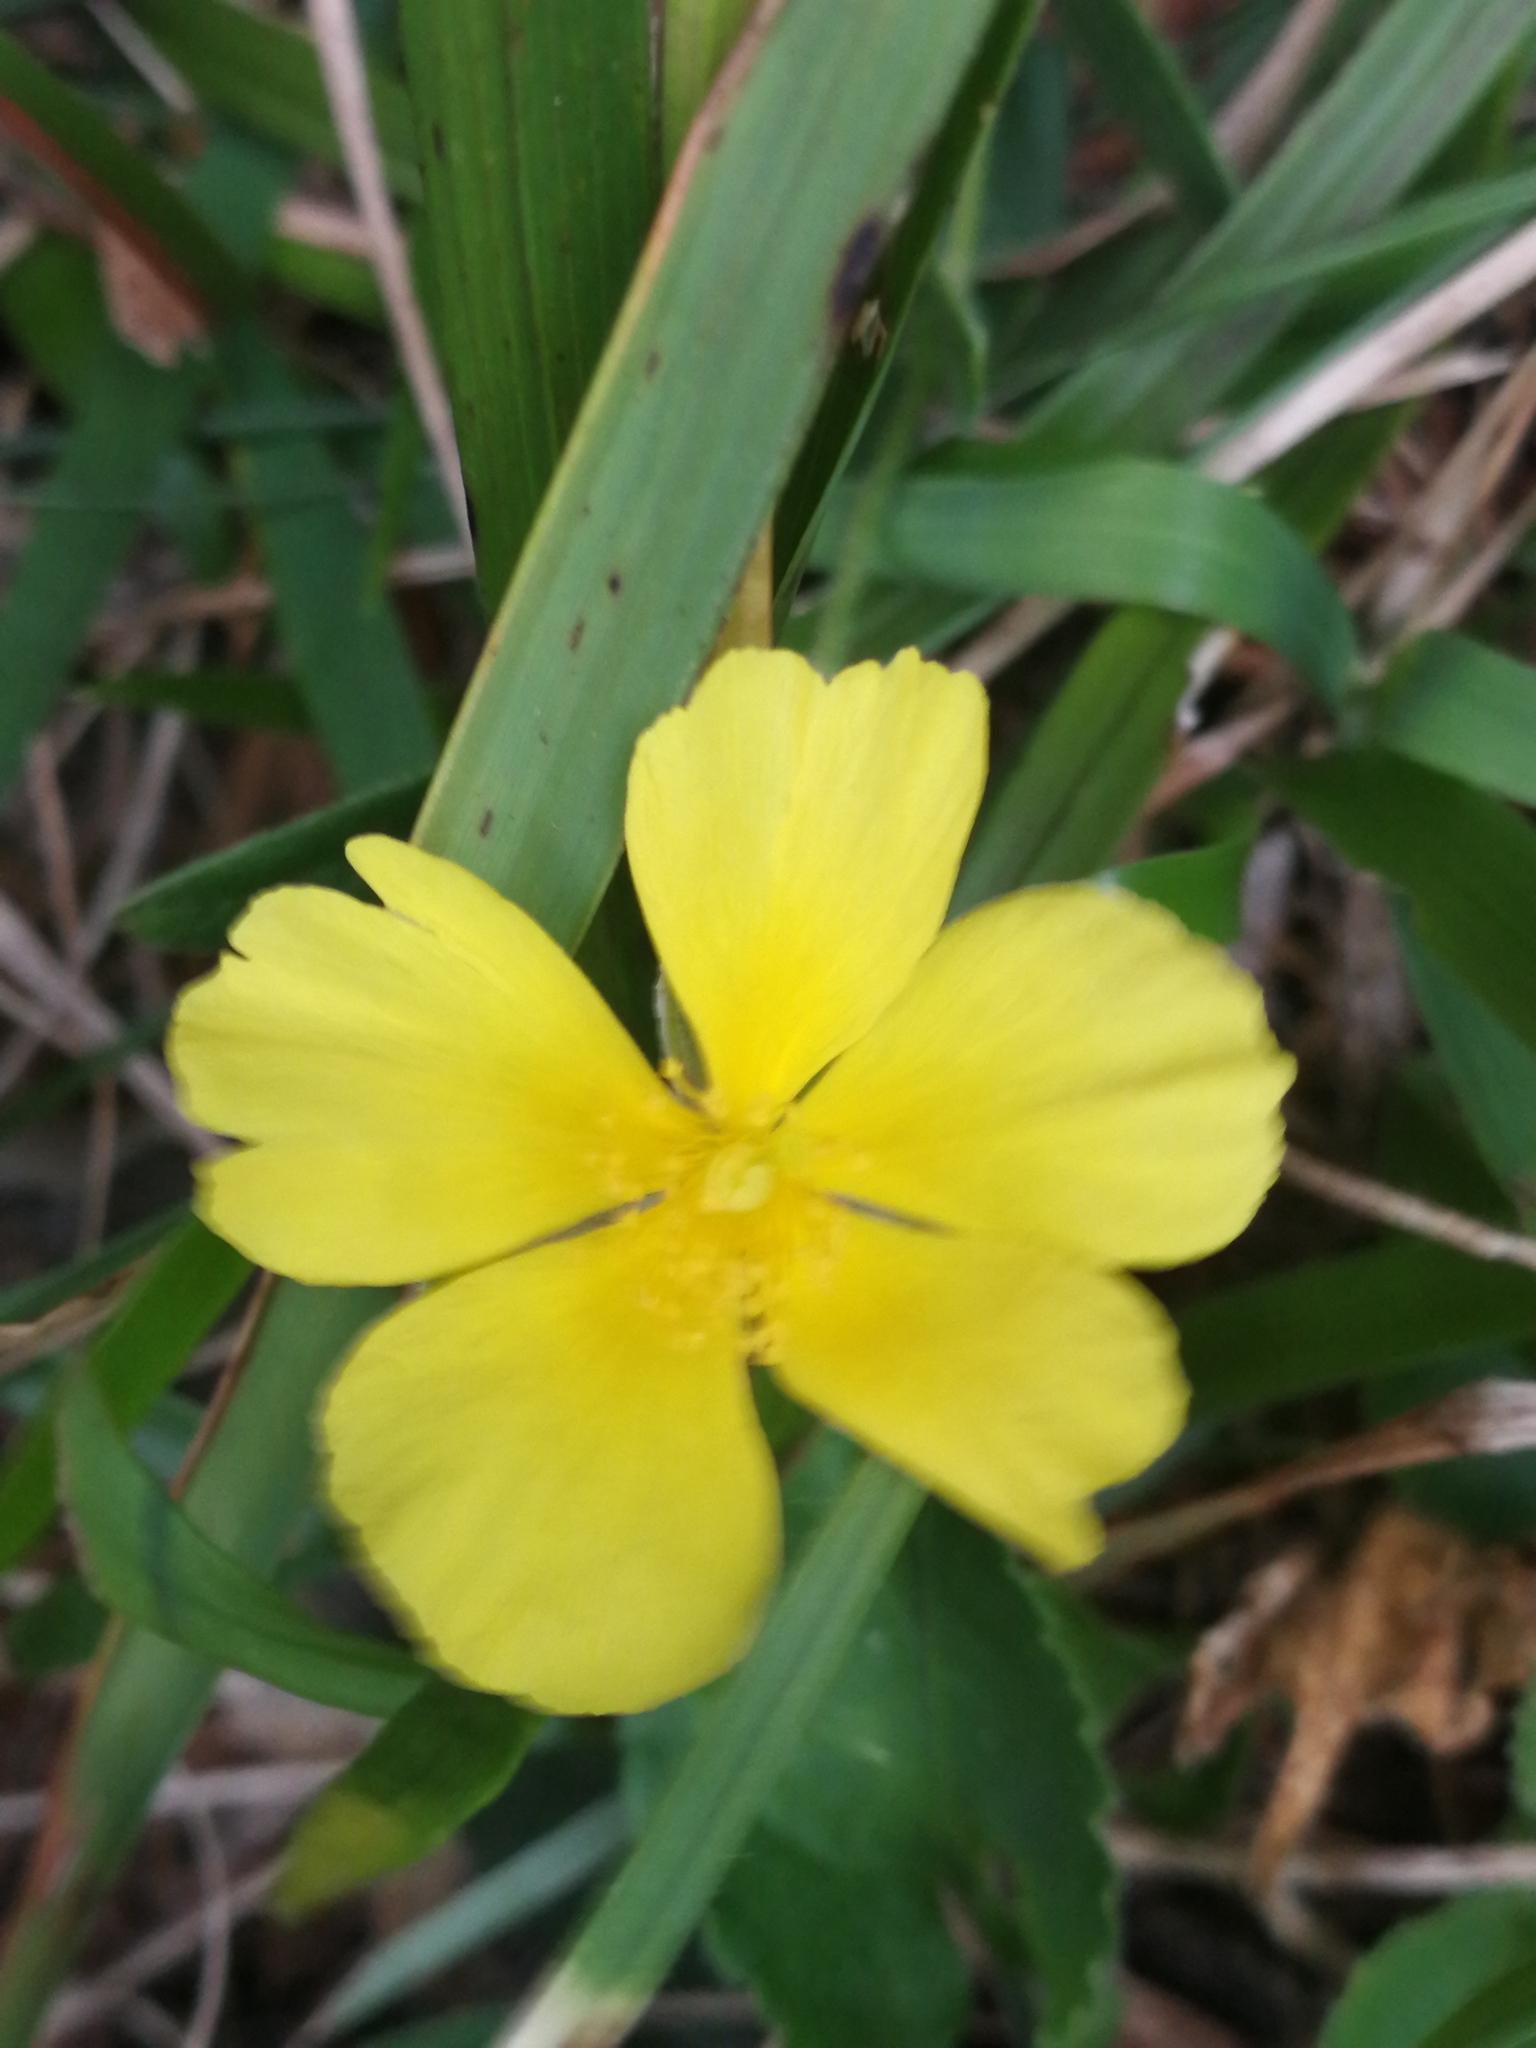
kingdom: Plantae
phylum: Tracheophyta
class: Magnoliopsida
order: Malvales
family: Cistaceae
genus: Helianthemum
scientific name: Helianthemum nummularium
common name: Common rock-rose
